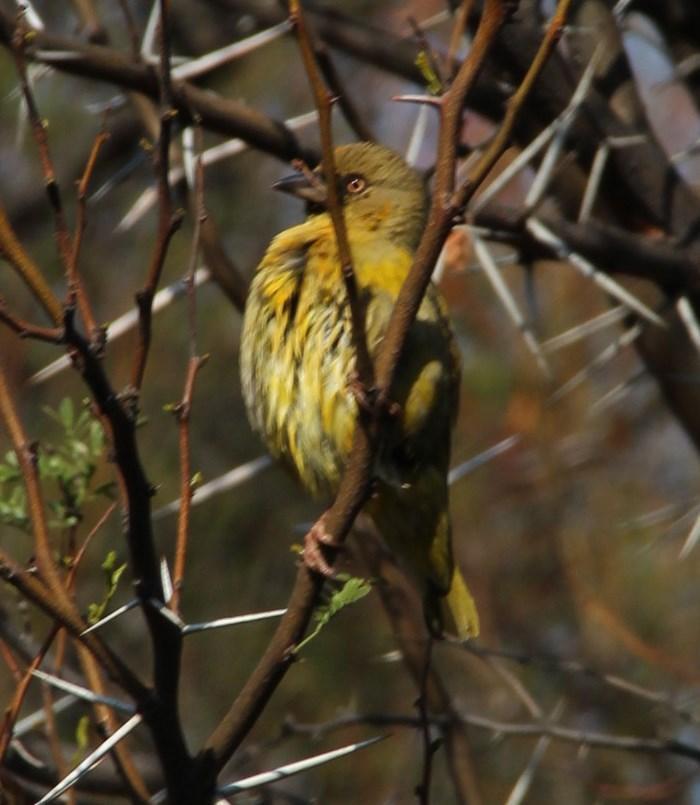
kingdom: Animalia
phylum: Chordata
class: Aves
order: Passeriformes
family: Ploceidae
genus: Ploceus
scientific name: Ploceus capensis
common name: Cape weaver
